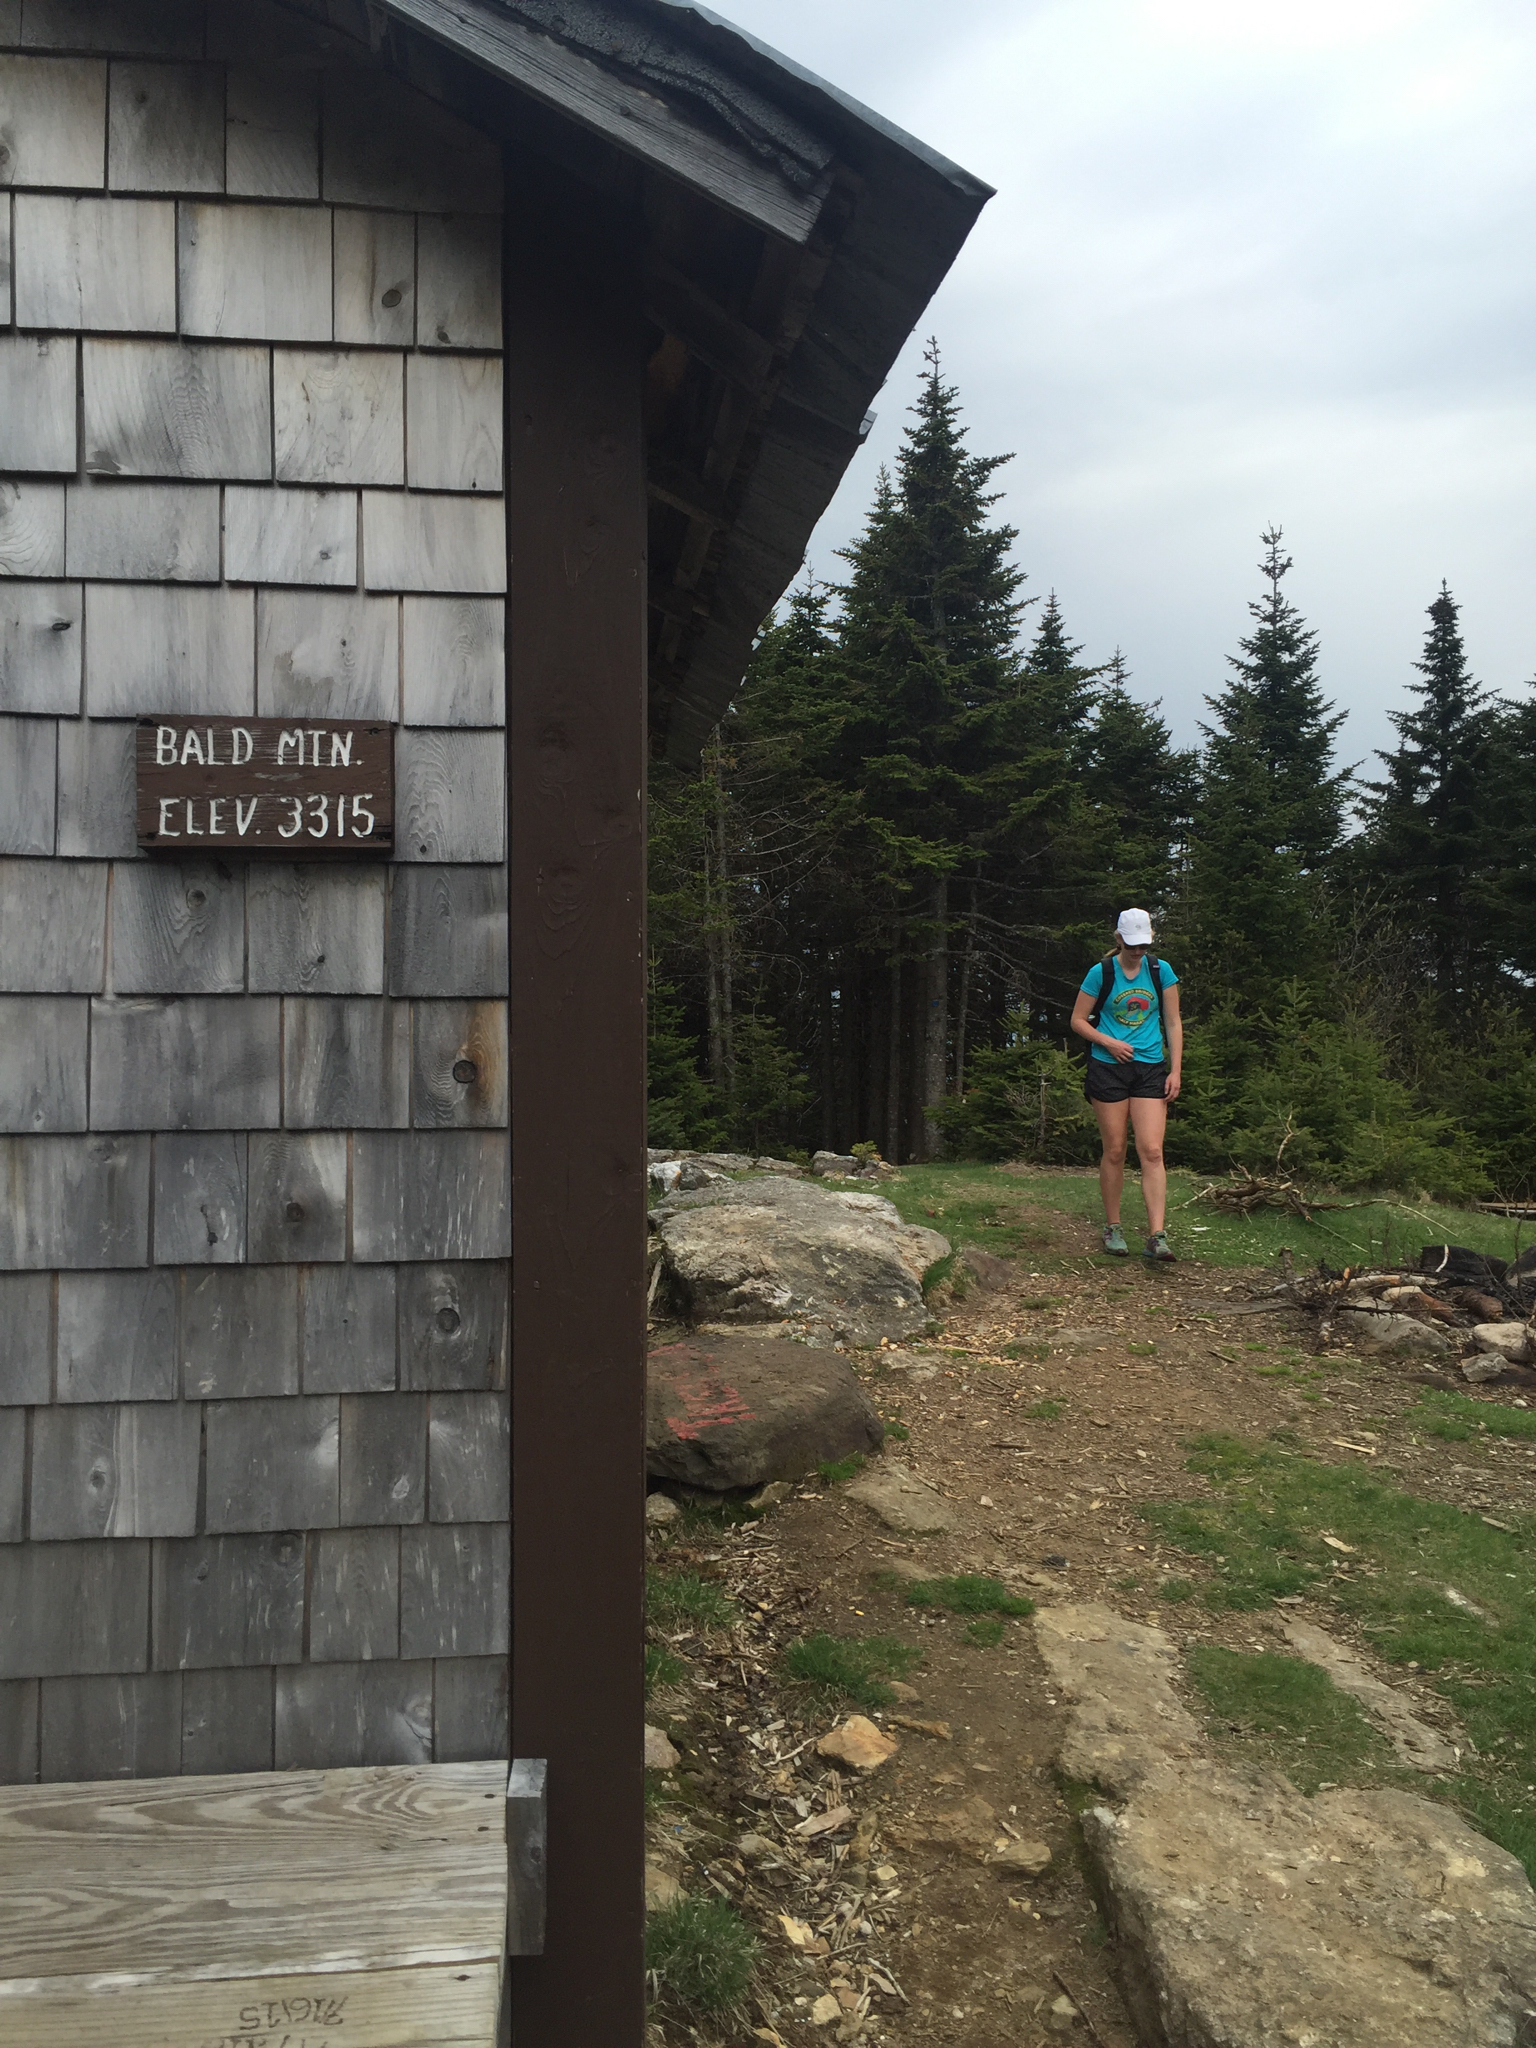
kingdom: Plantae
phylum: Tracheophyta
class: Pinopsida
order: Pinales
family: Pinaceae
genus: Abies
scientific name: Abies balsamea
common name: Balsam fir
